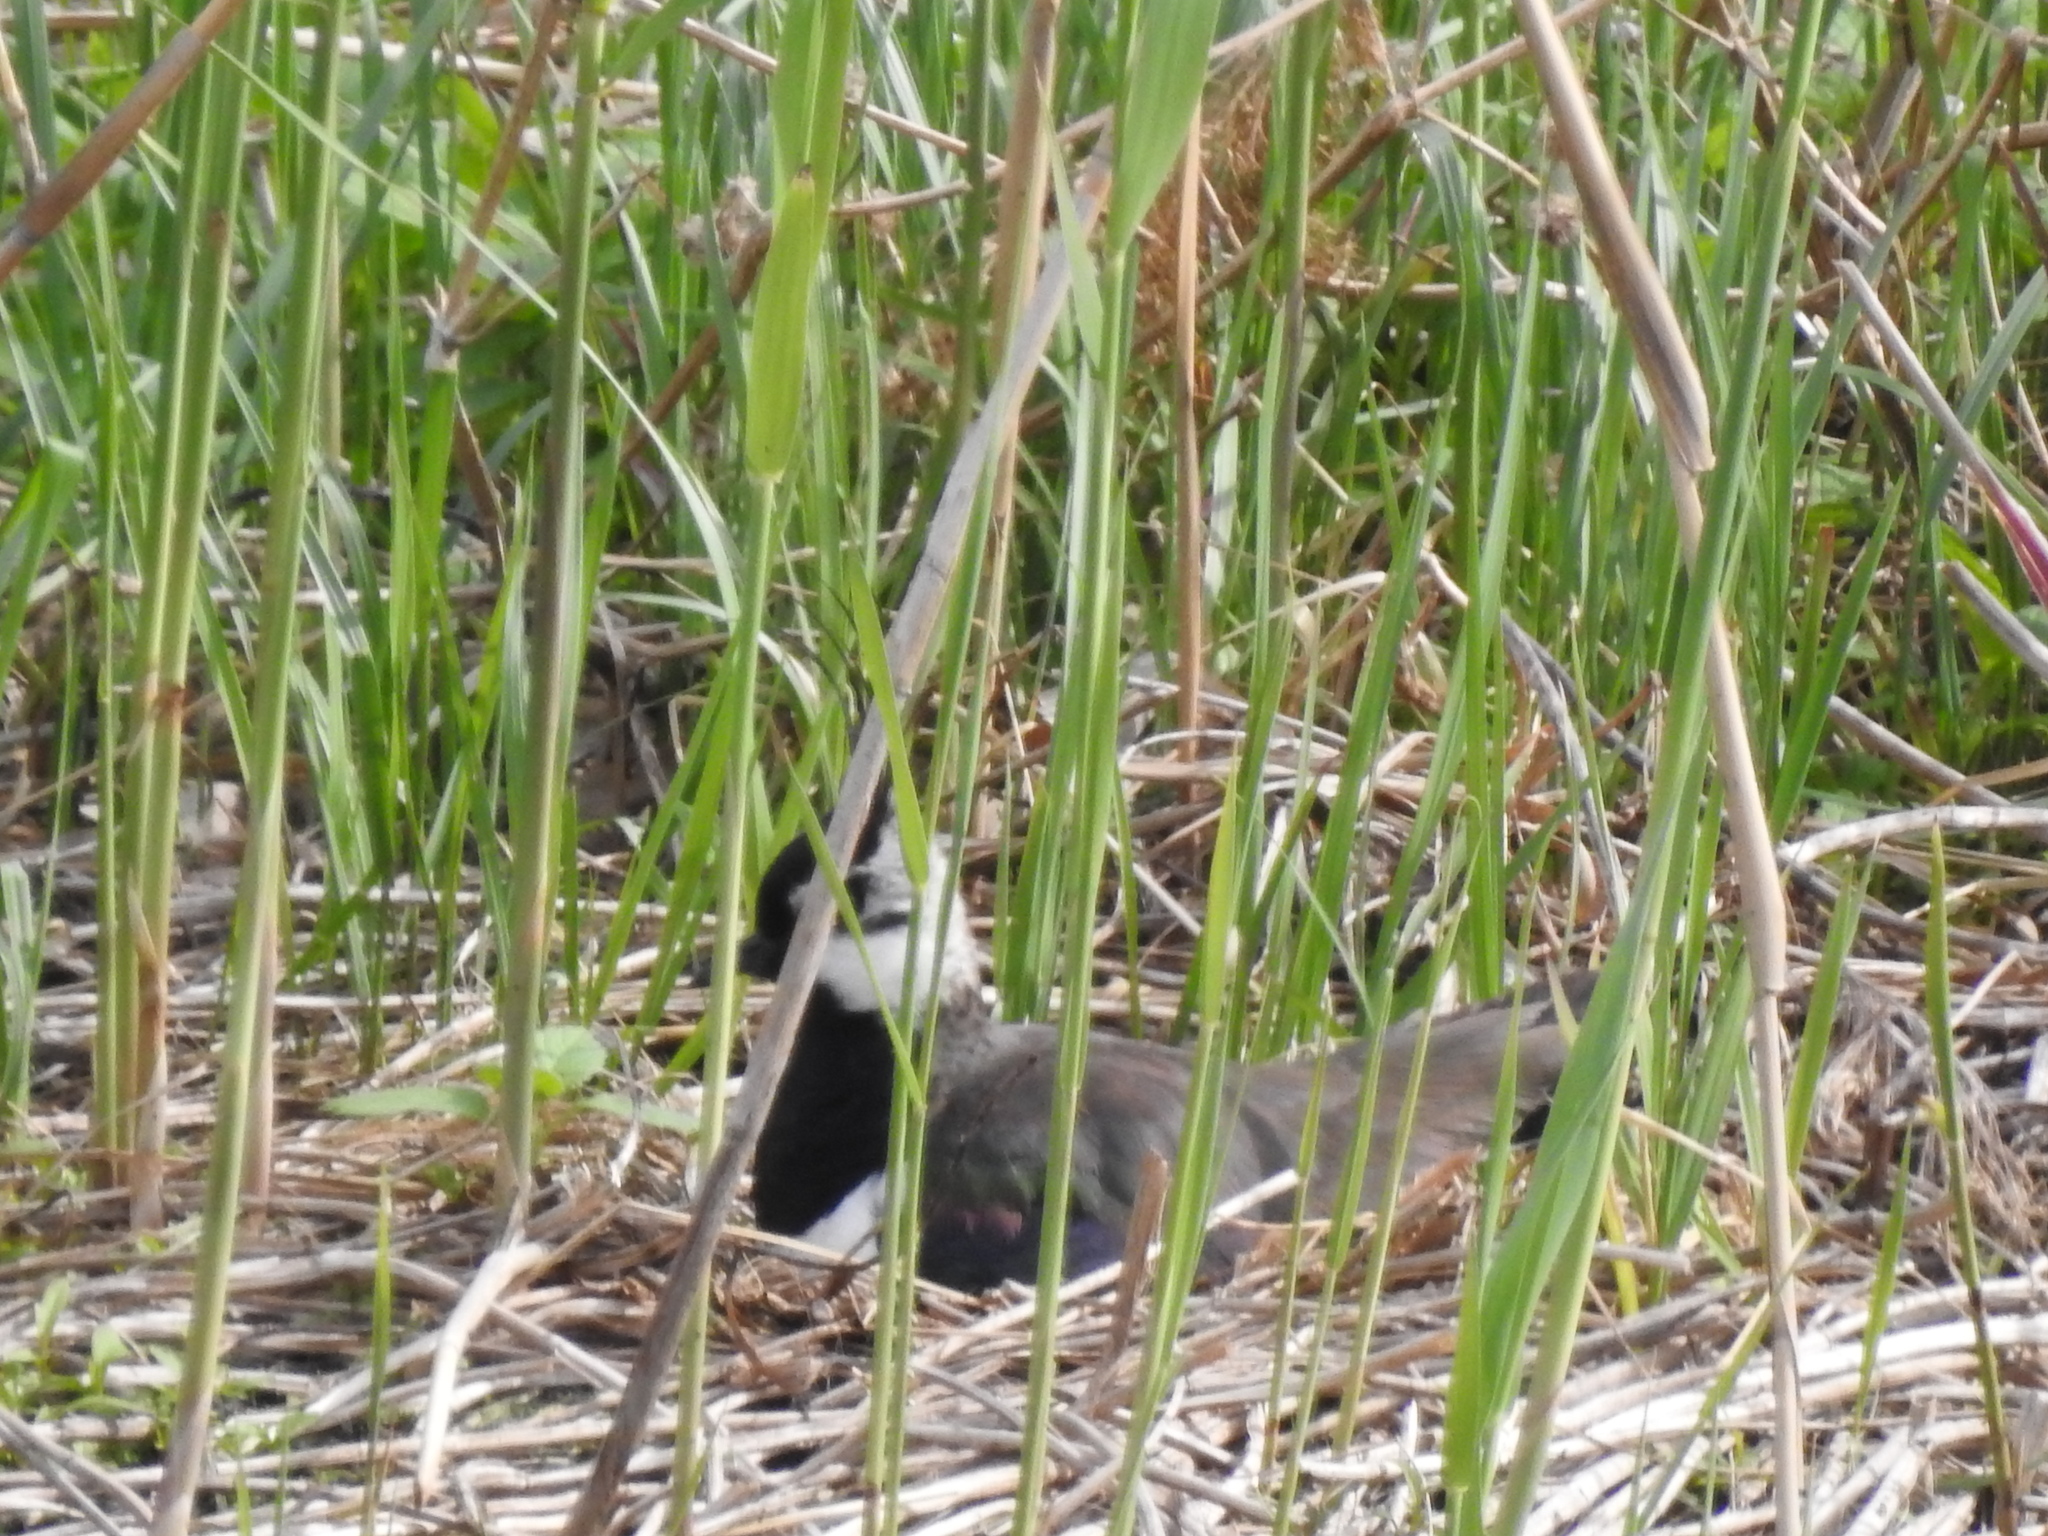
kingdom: Animalia
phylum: Chordata
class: Aves
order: Charadriiformes
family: Charadriidae
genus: Vanellus
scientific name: Vanellus vanellus
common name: Northern lapwing
